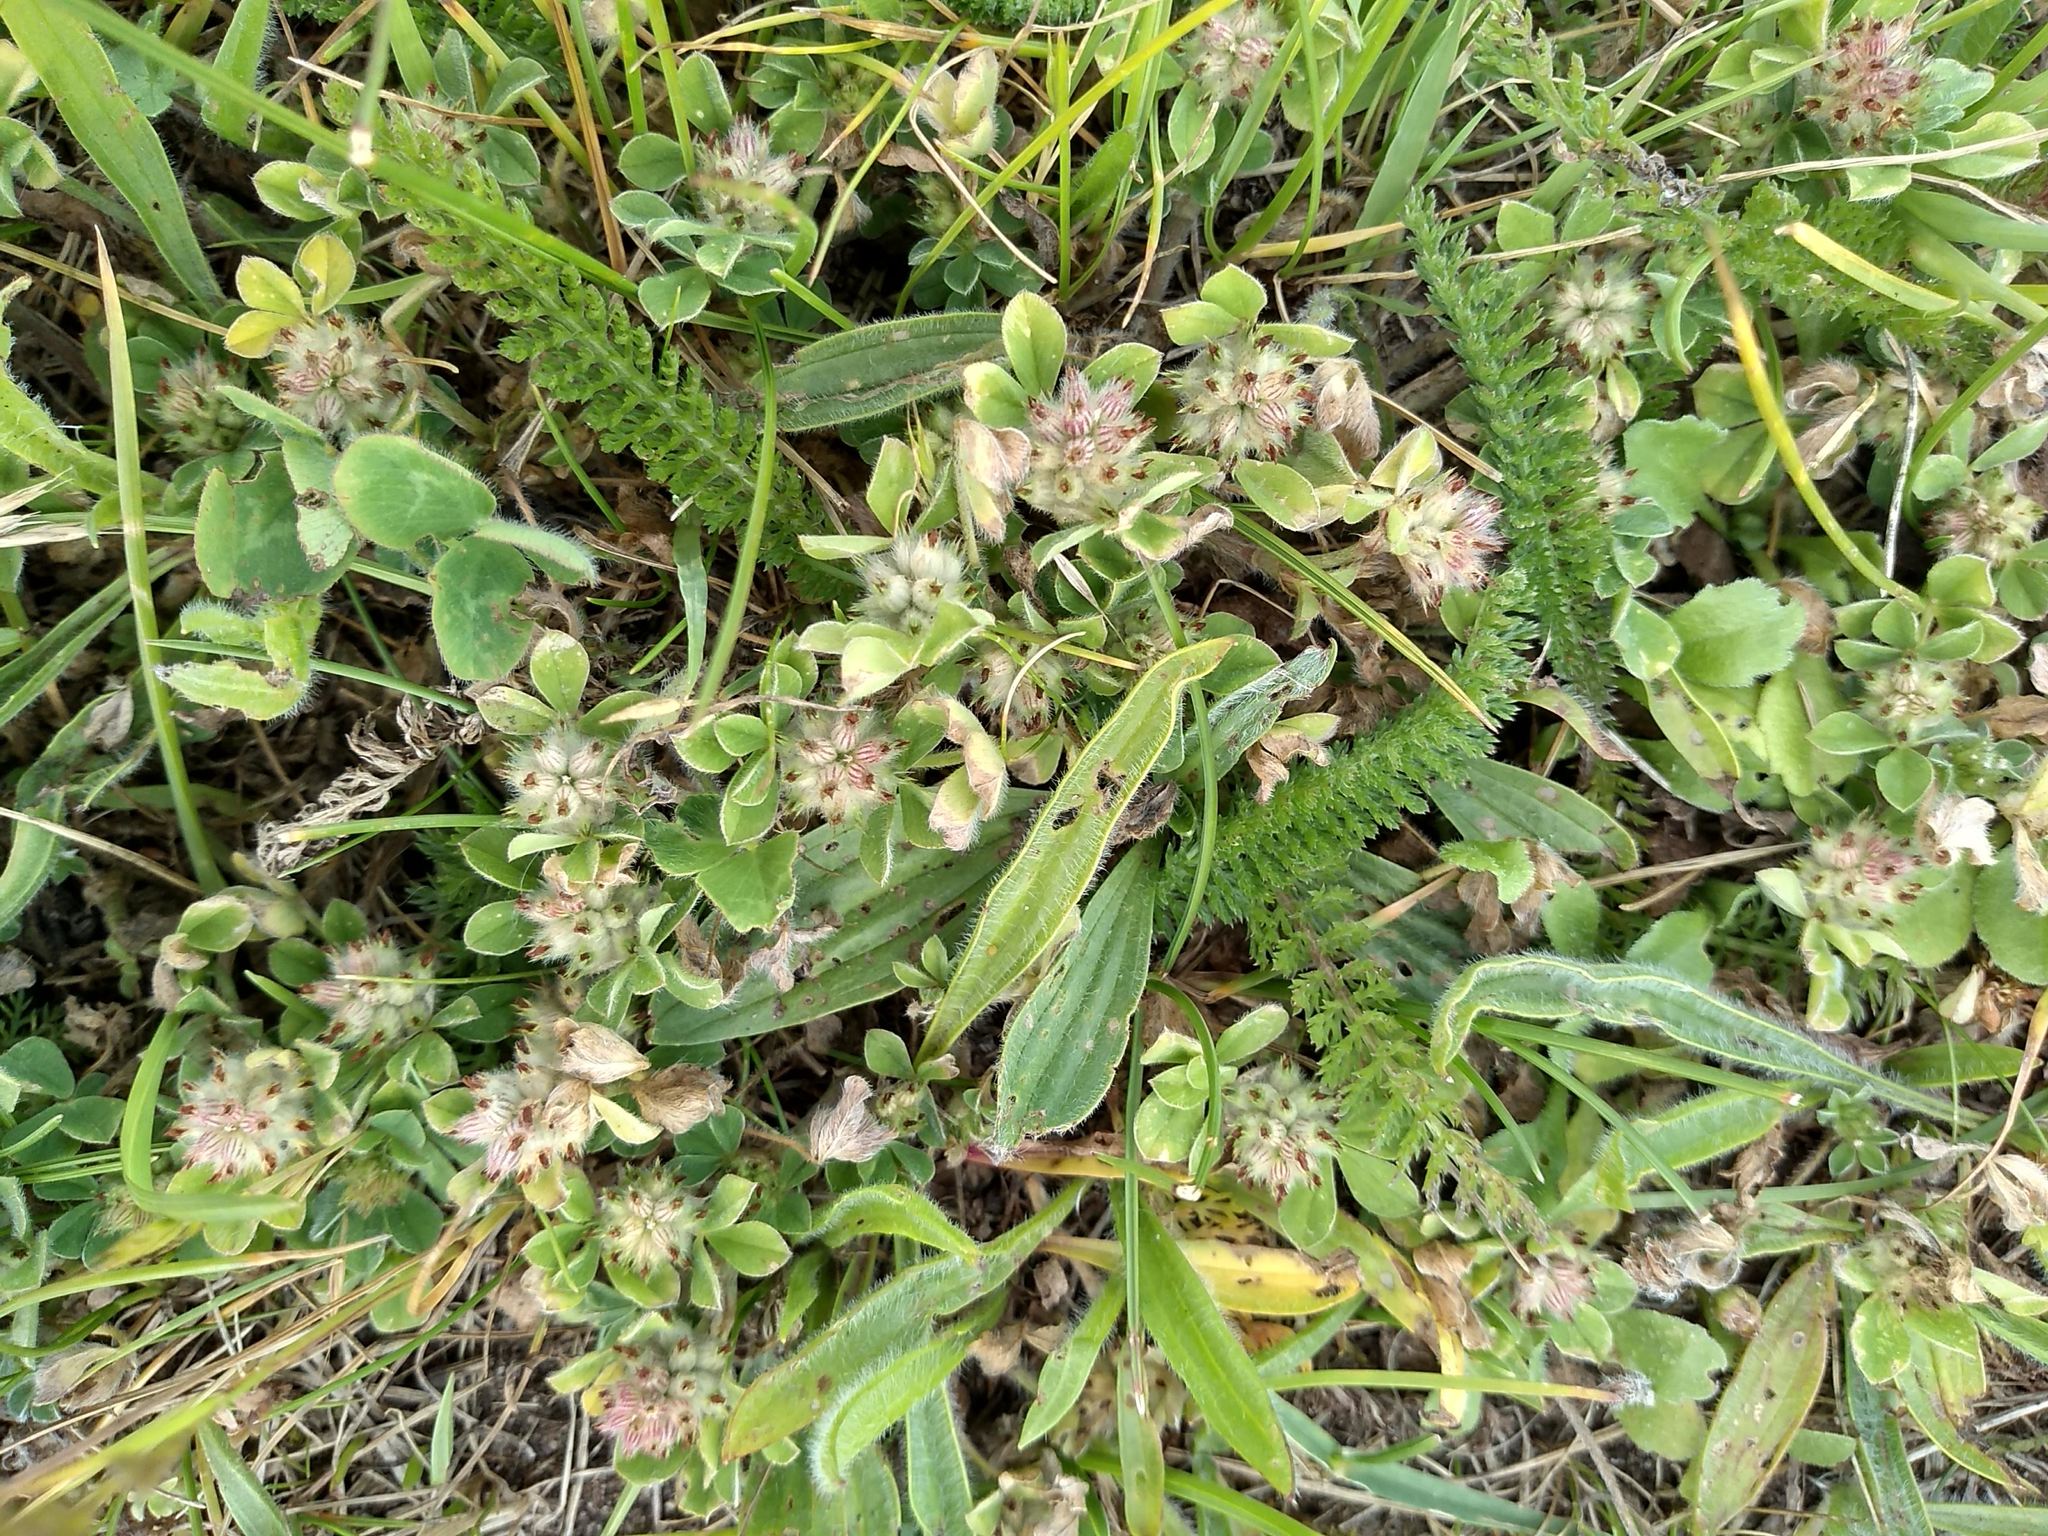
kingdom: Plantae
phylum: Tracheophyta
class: Magnoliopsida
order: Fabales
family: Fabaceae
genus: Trifolium
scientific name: Trifolium striatum
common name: Knotted clover
